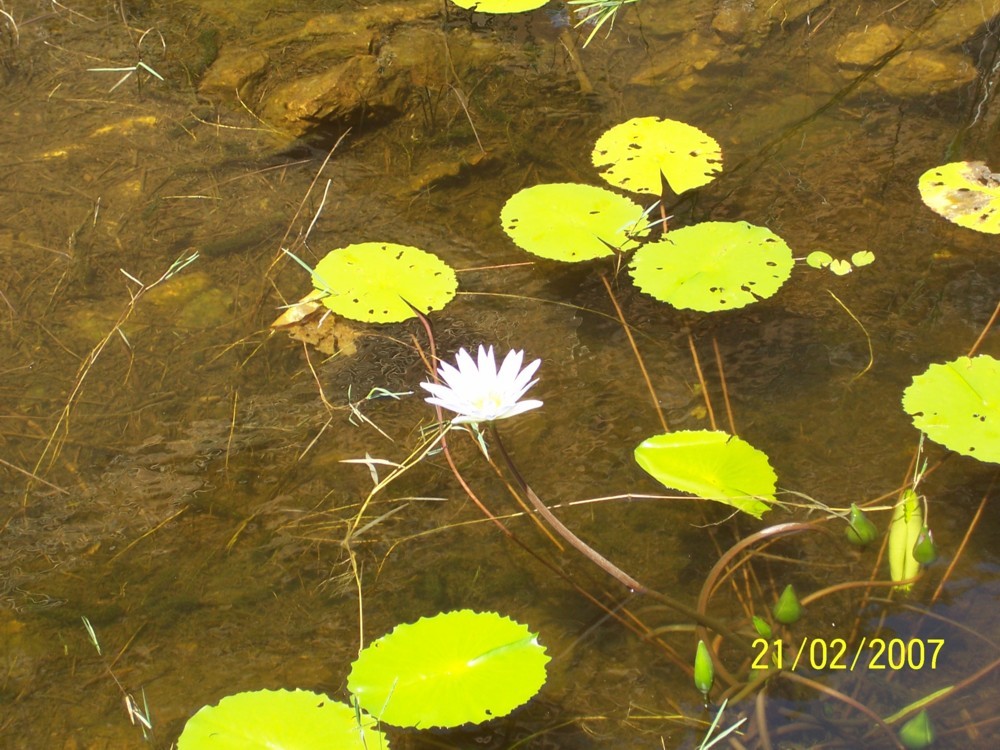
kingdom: Plantae
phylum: Tracheophyta
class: Magnoliopsida
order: Nymphaeales
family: Nymphaeaceae
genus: Nymphaea
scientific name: Nymphaea nouchali
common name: Blue lotus
